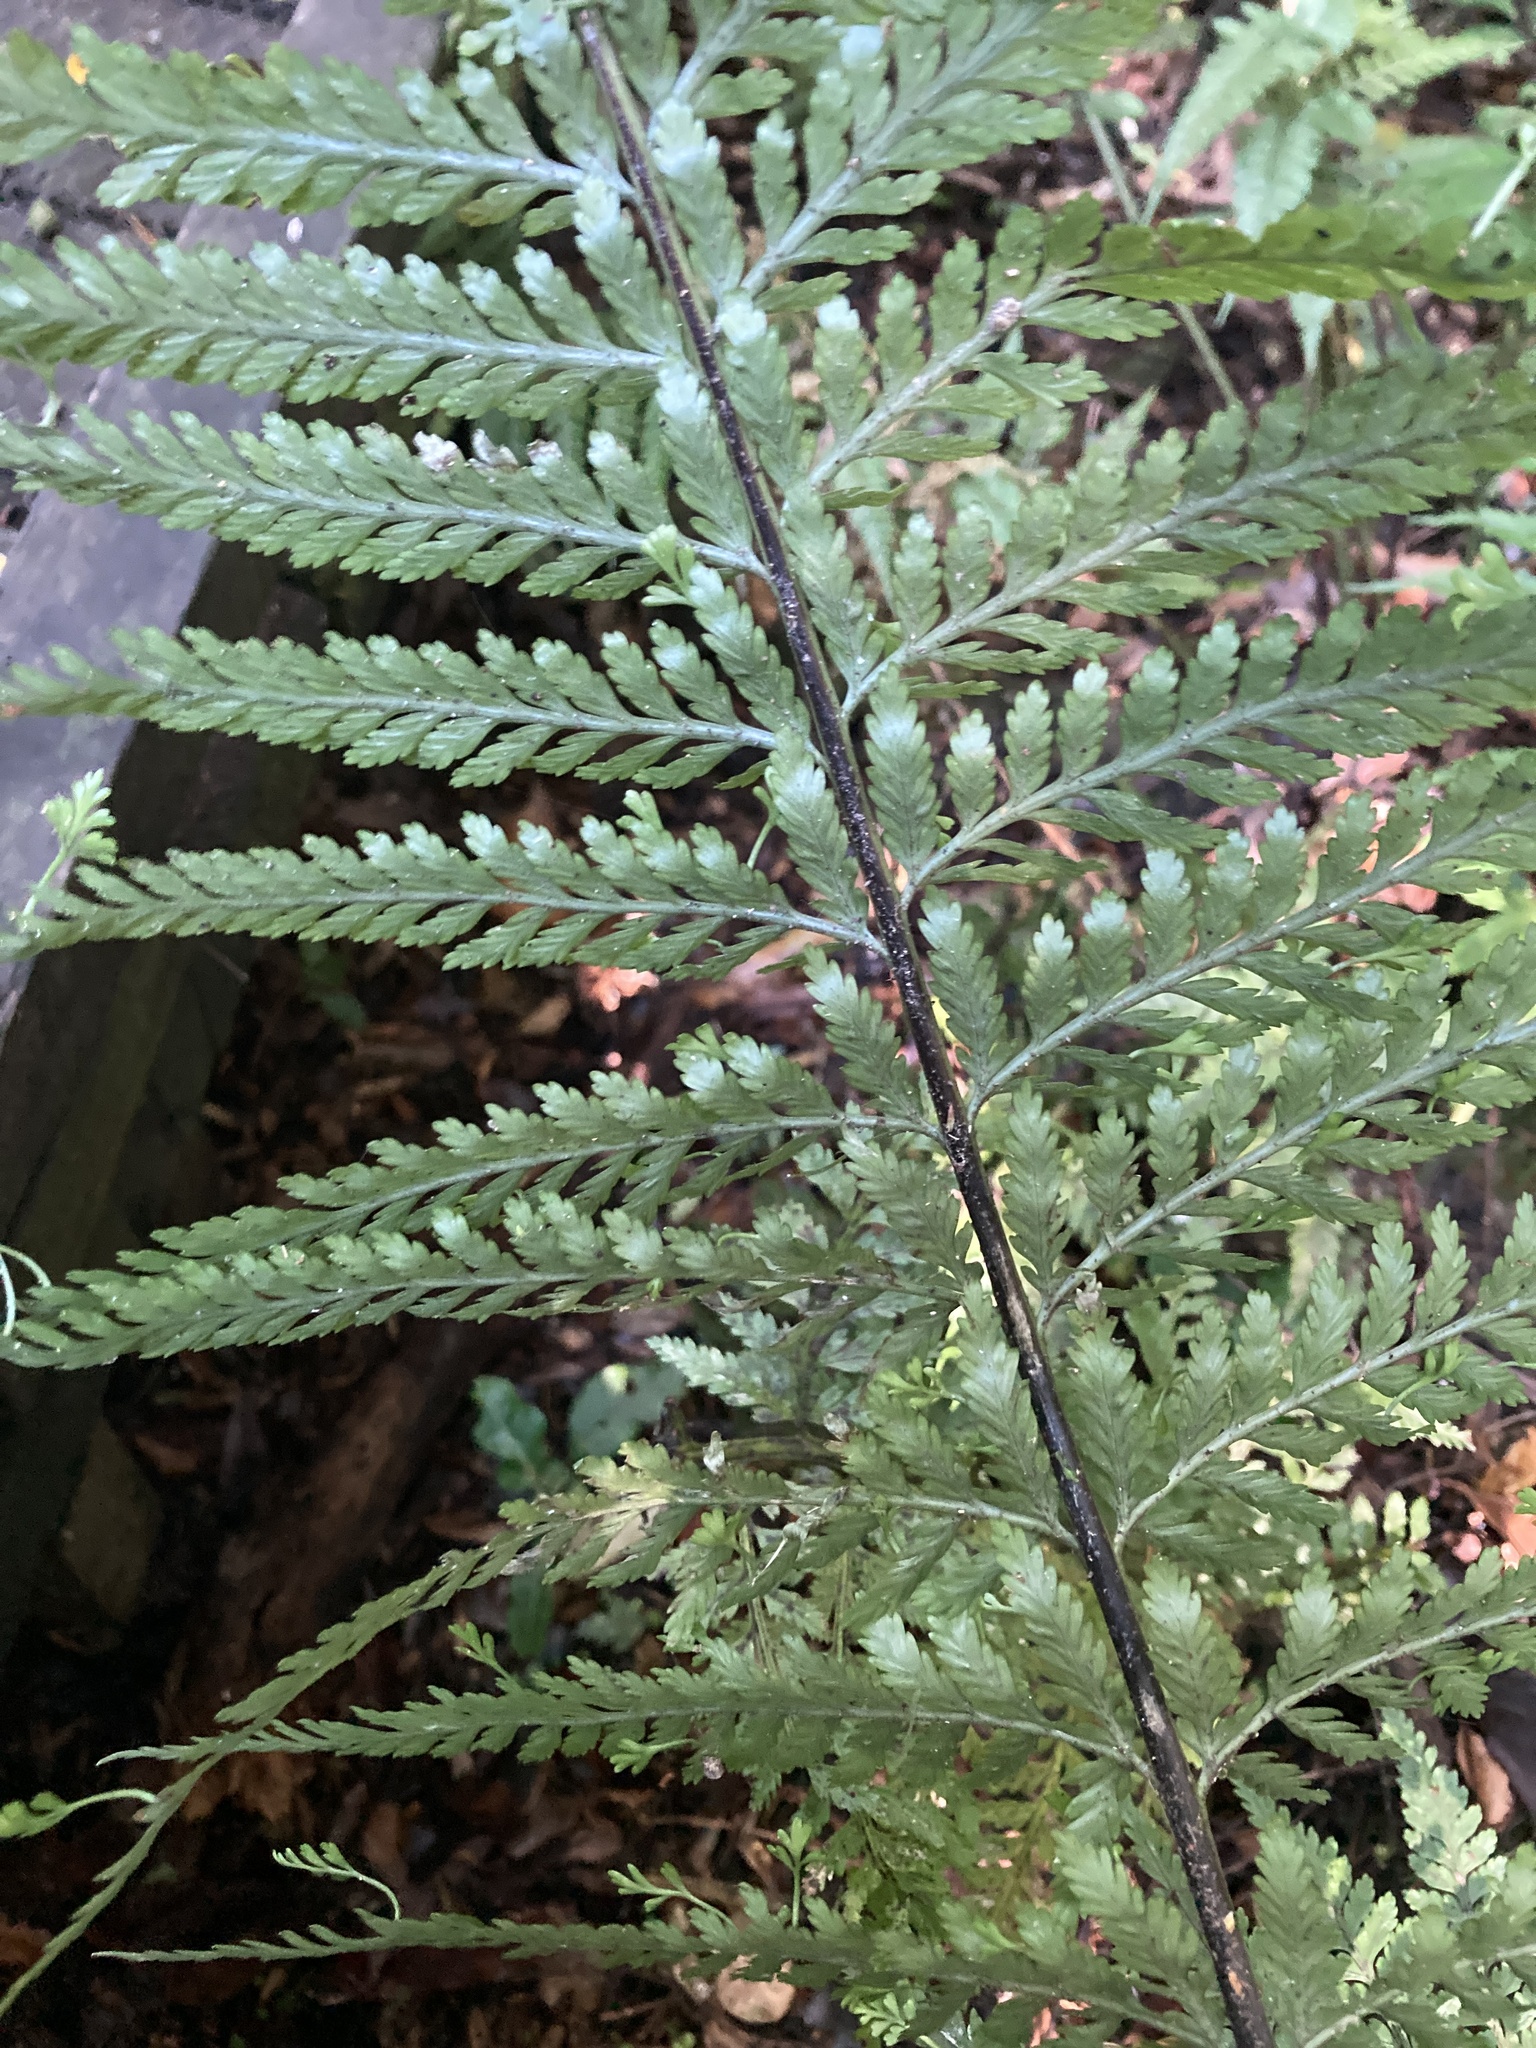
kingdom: Plantae
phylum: Tracheophyta
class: Polypodiopsida
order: Polypodiales
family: Aspleniaceae
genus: Asplenium
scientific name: Asplenium bulbiferum
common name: Mother fern
